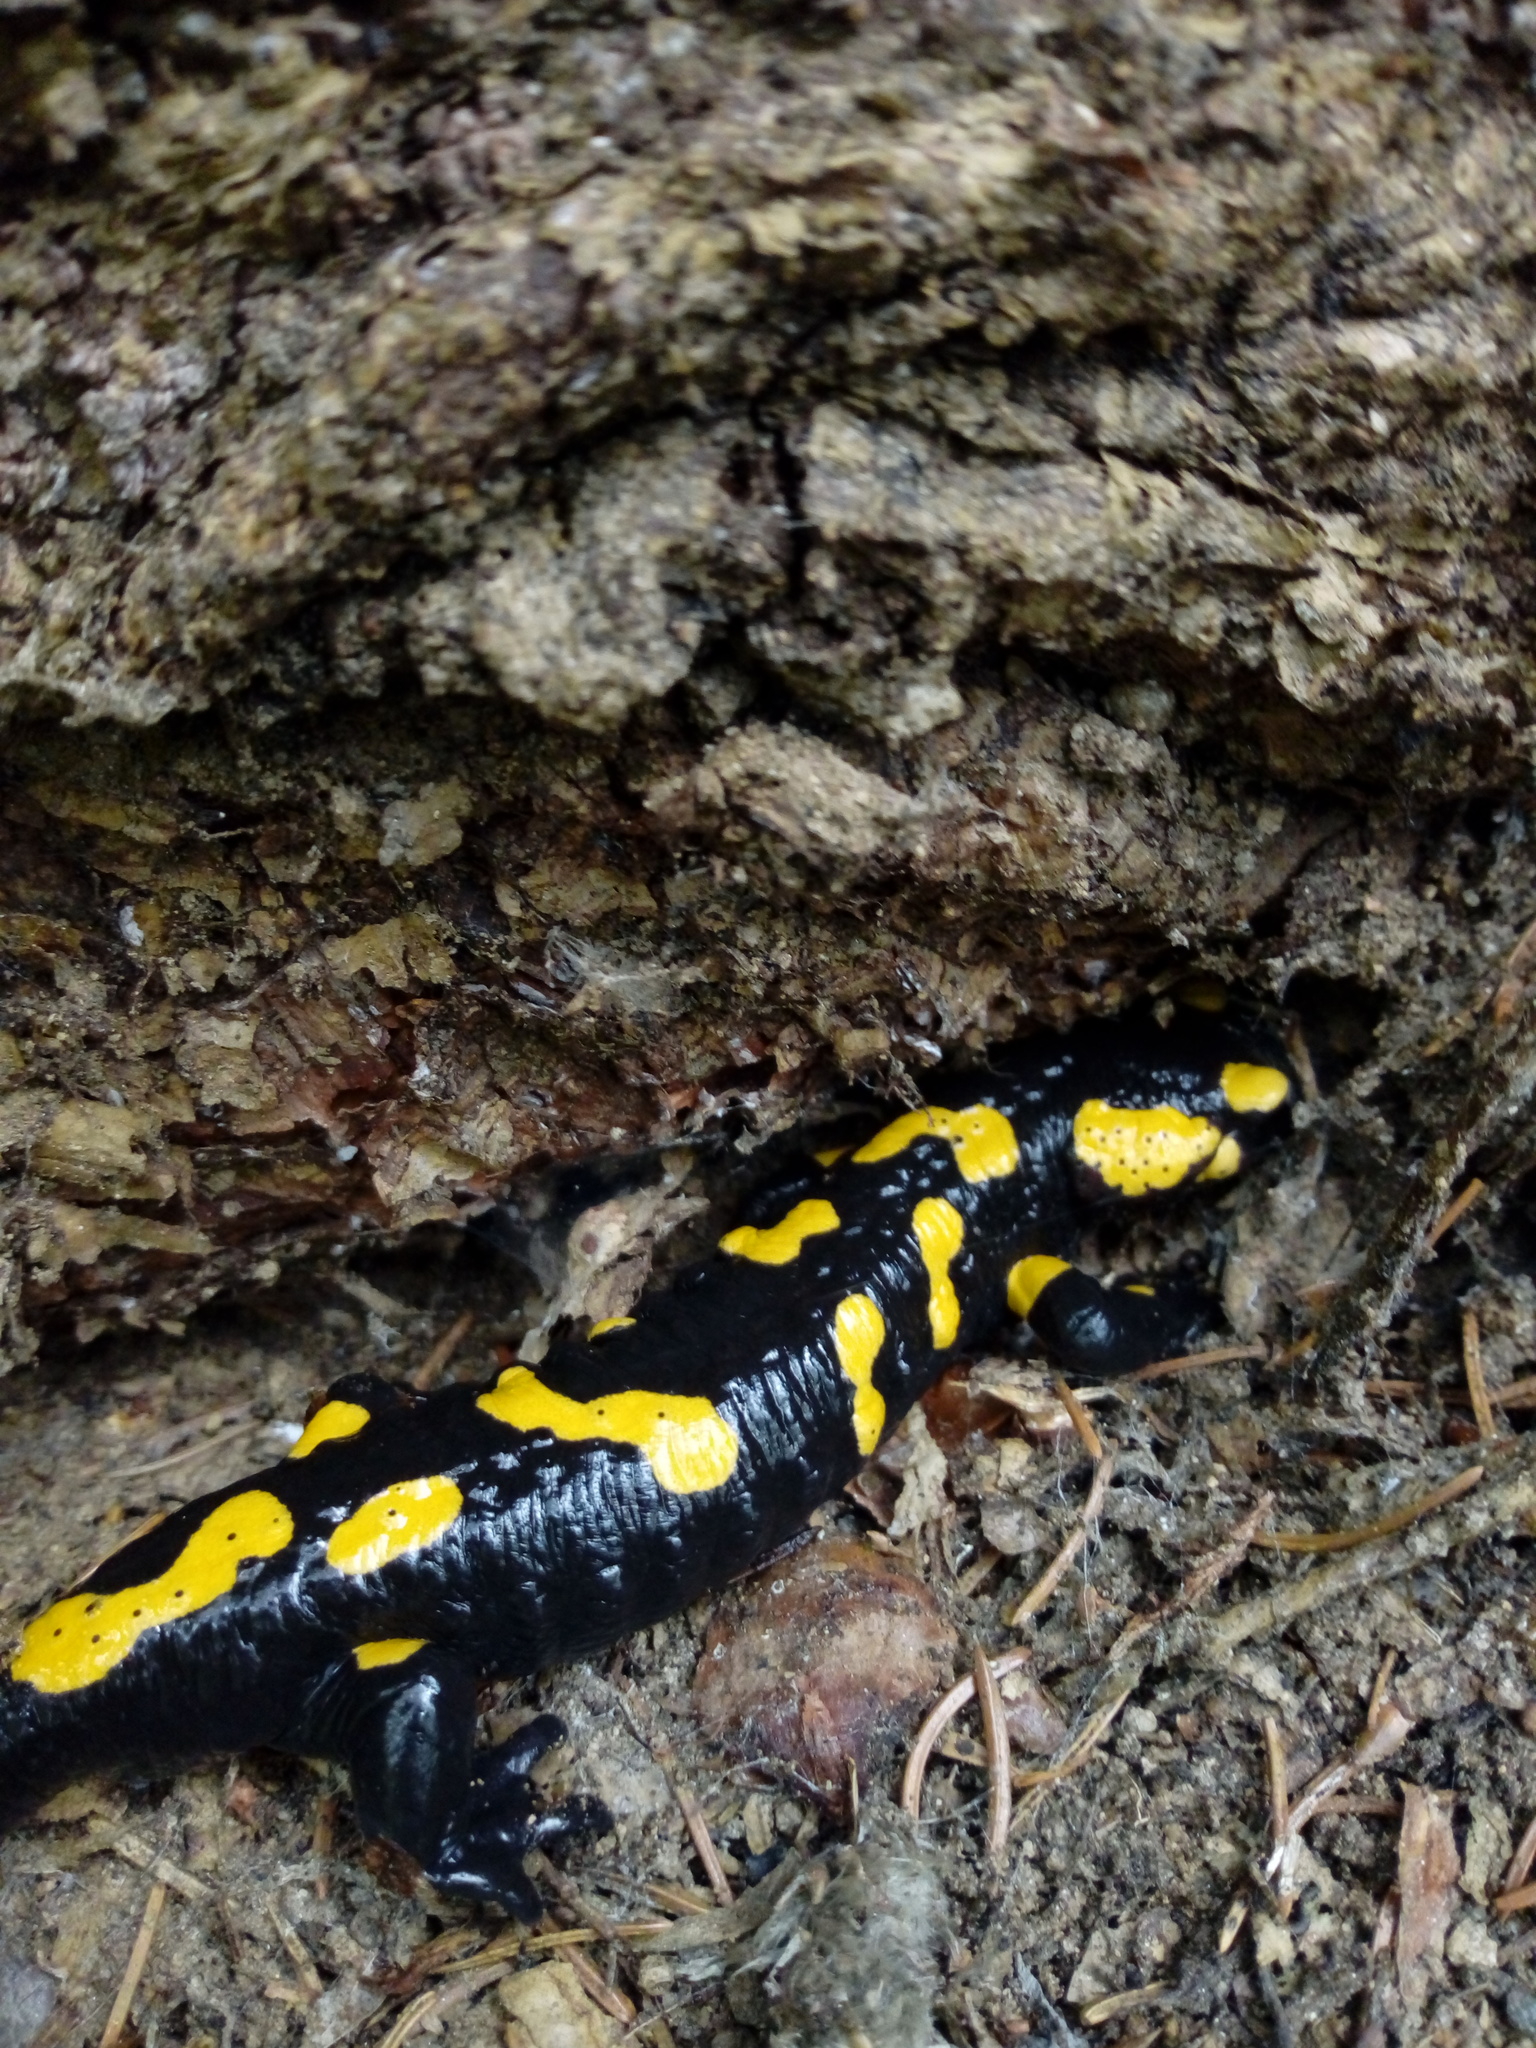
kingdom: Animalia
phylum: Chordata
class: Amphibia
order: Caudata
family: Salamandridae
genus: Salamandra
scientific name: Salamandra salamandra
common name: Fire salamander
